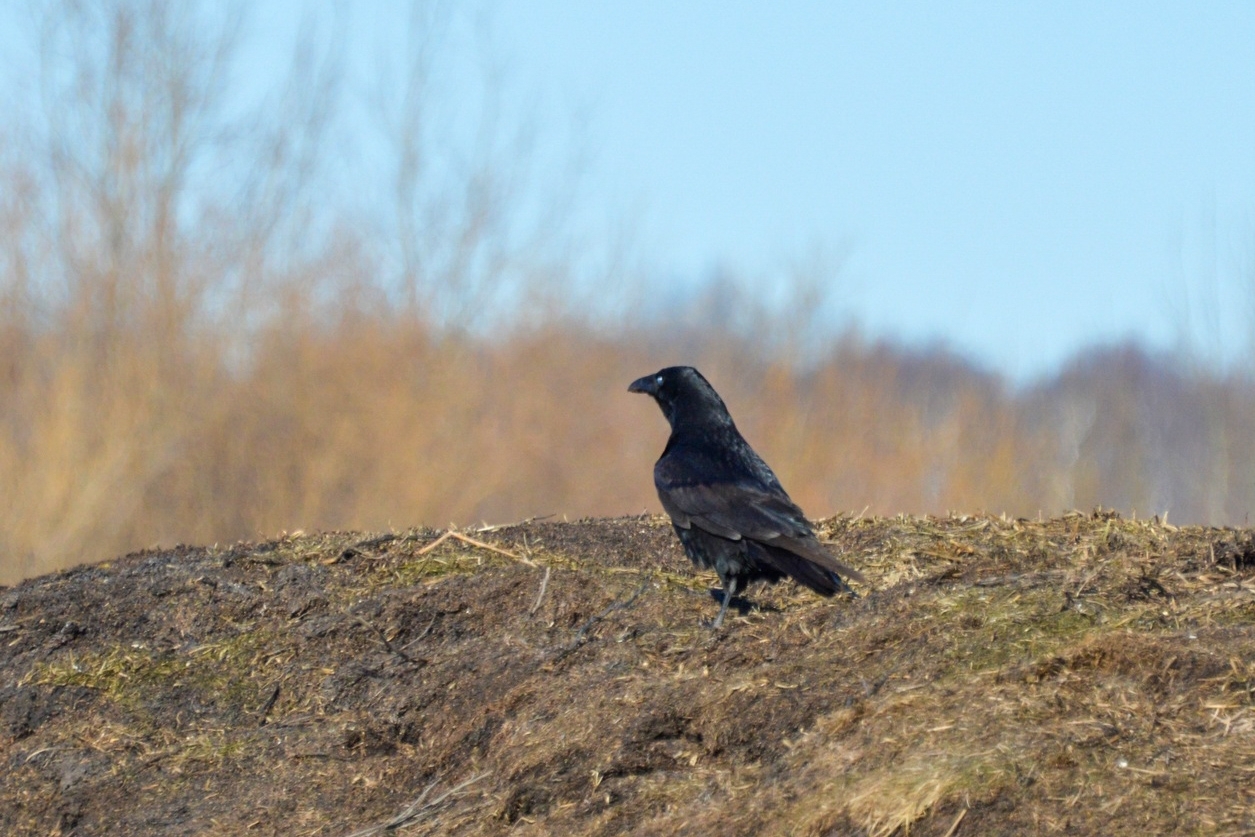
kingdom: Animalia
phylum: Chordata
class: Aves
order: Passeriformes
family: Corvidae
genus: Corvus
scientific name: Corvus corax
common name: Common raven
